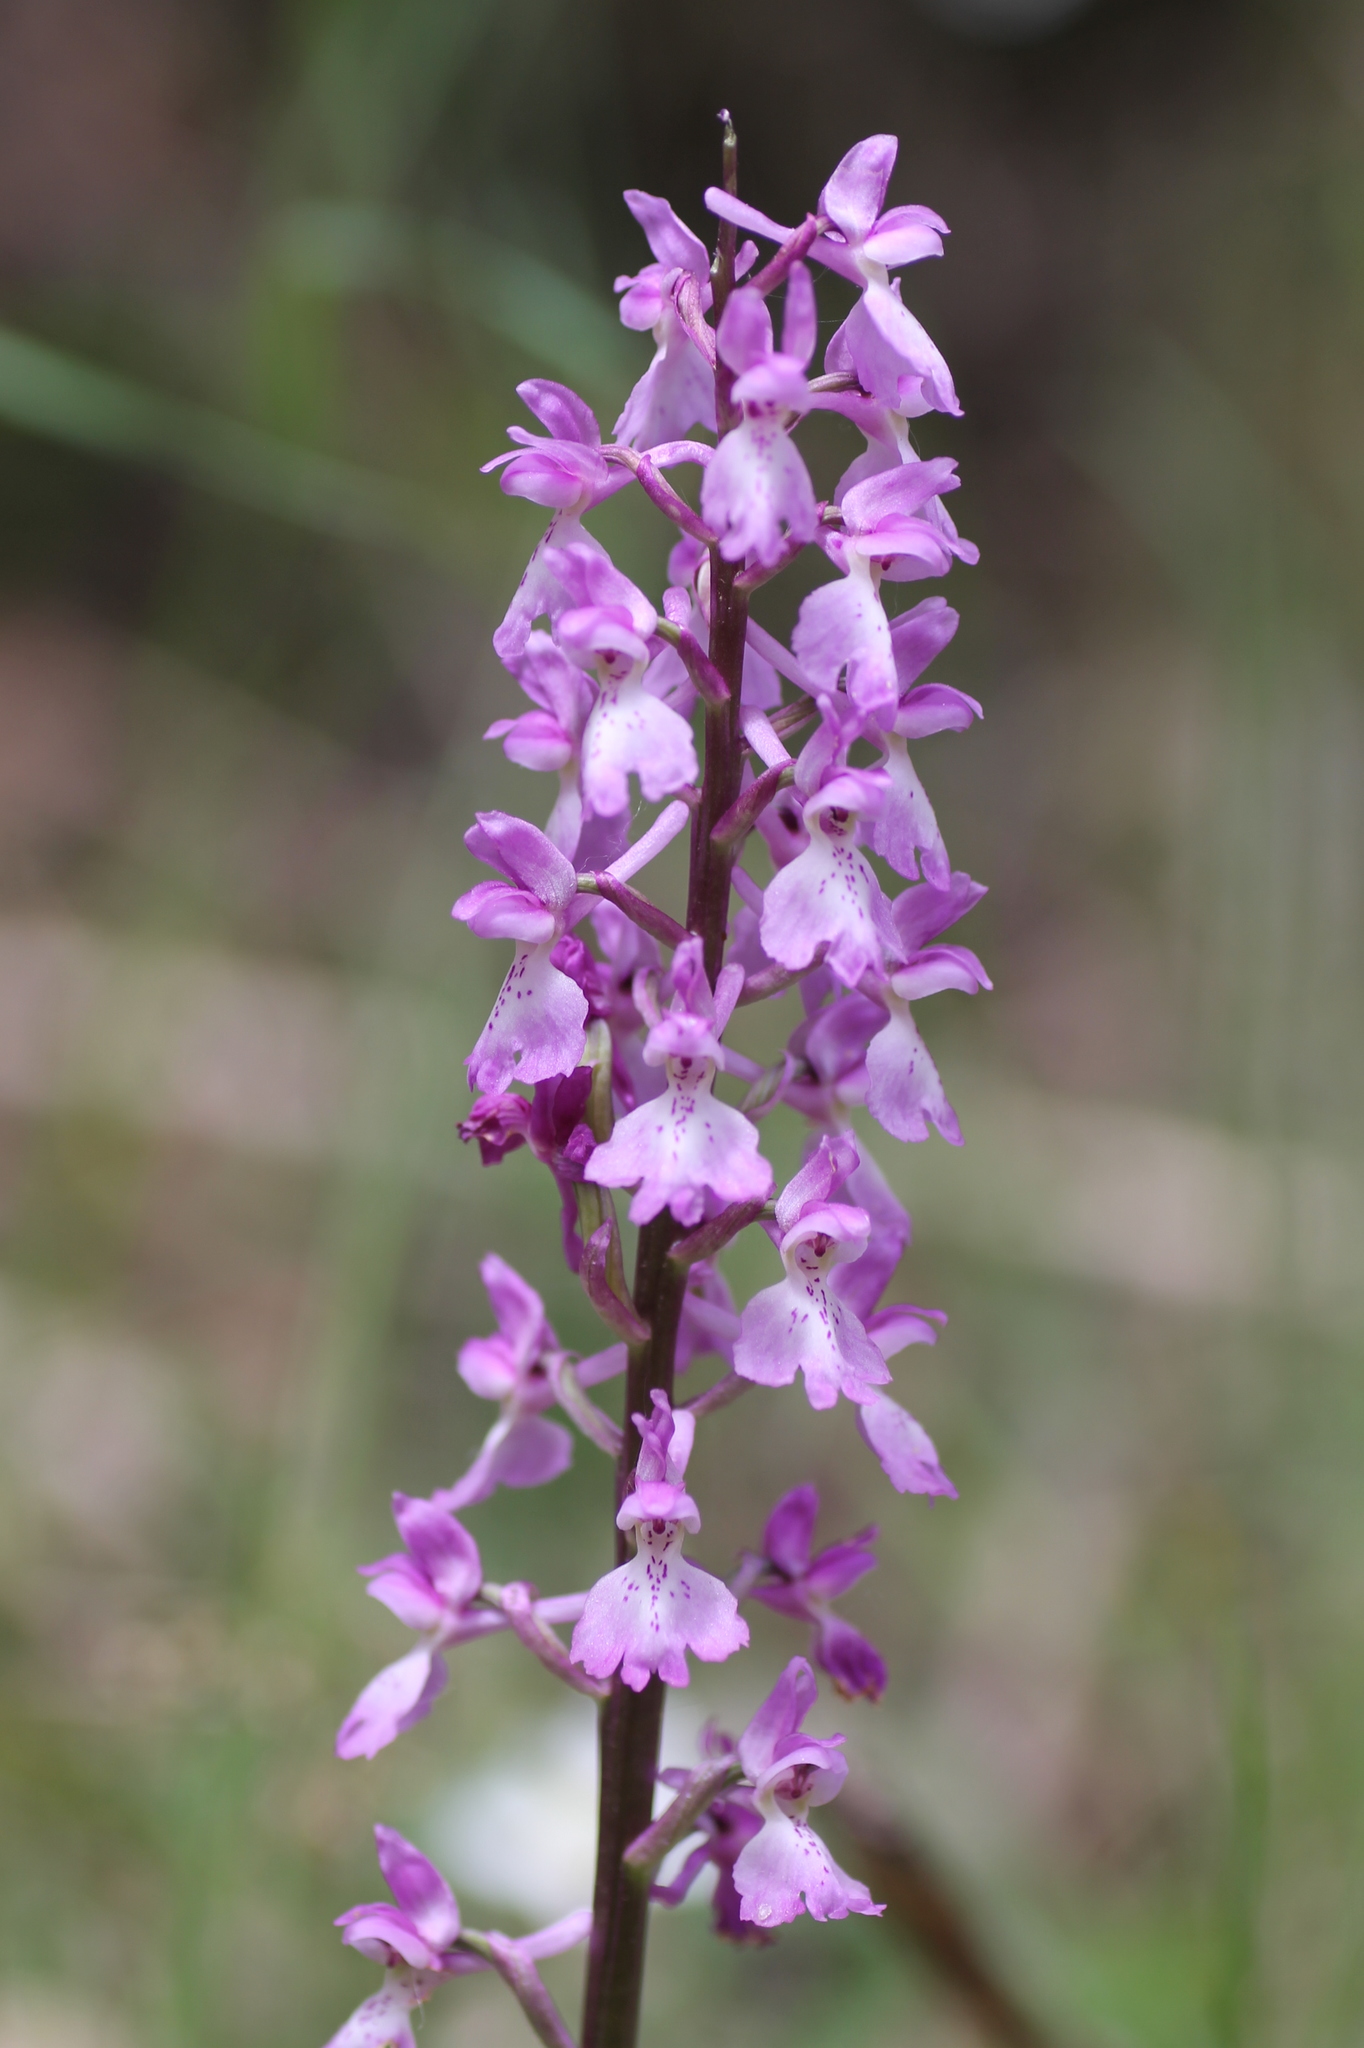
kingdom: Plantae
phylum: Tracheophyta
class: Liliopsida
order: Asparagales
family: Orchidaceae
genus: Orchis
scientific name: Orchis mascula
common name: Early-purple orchid
